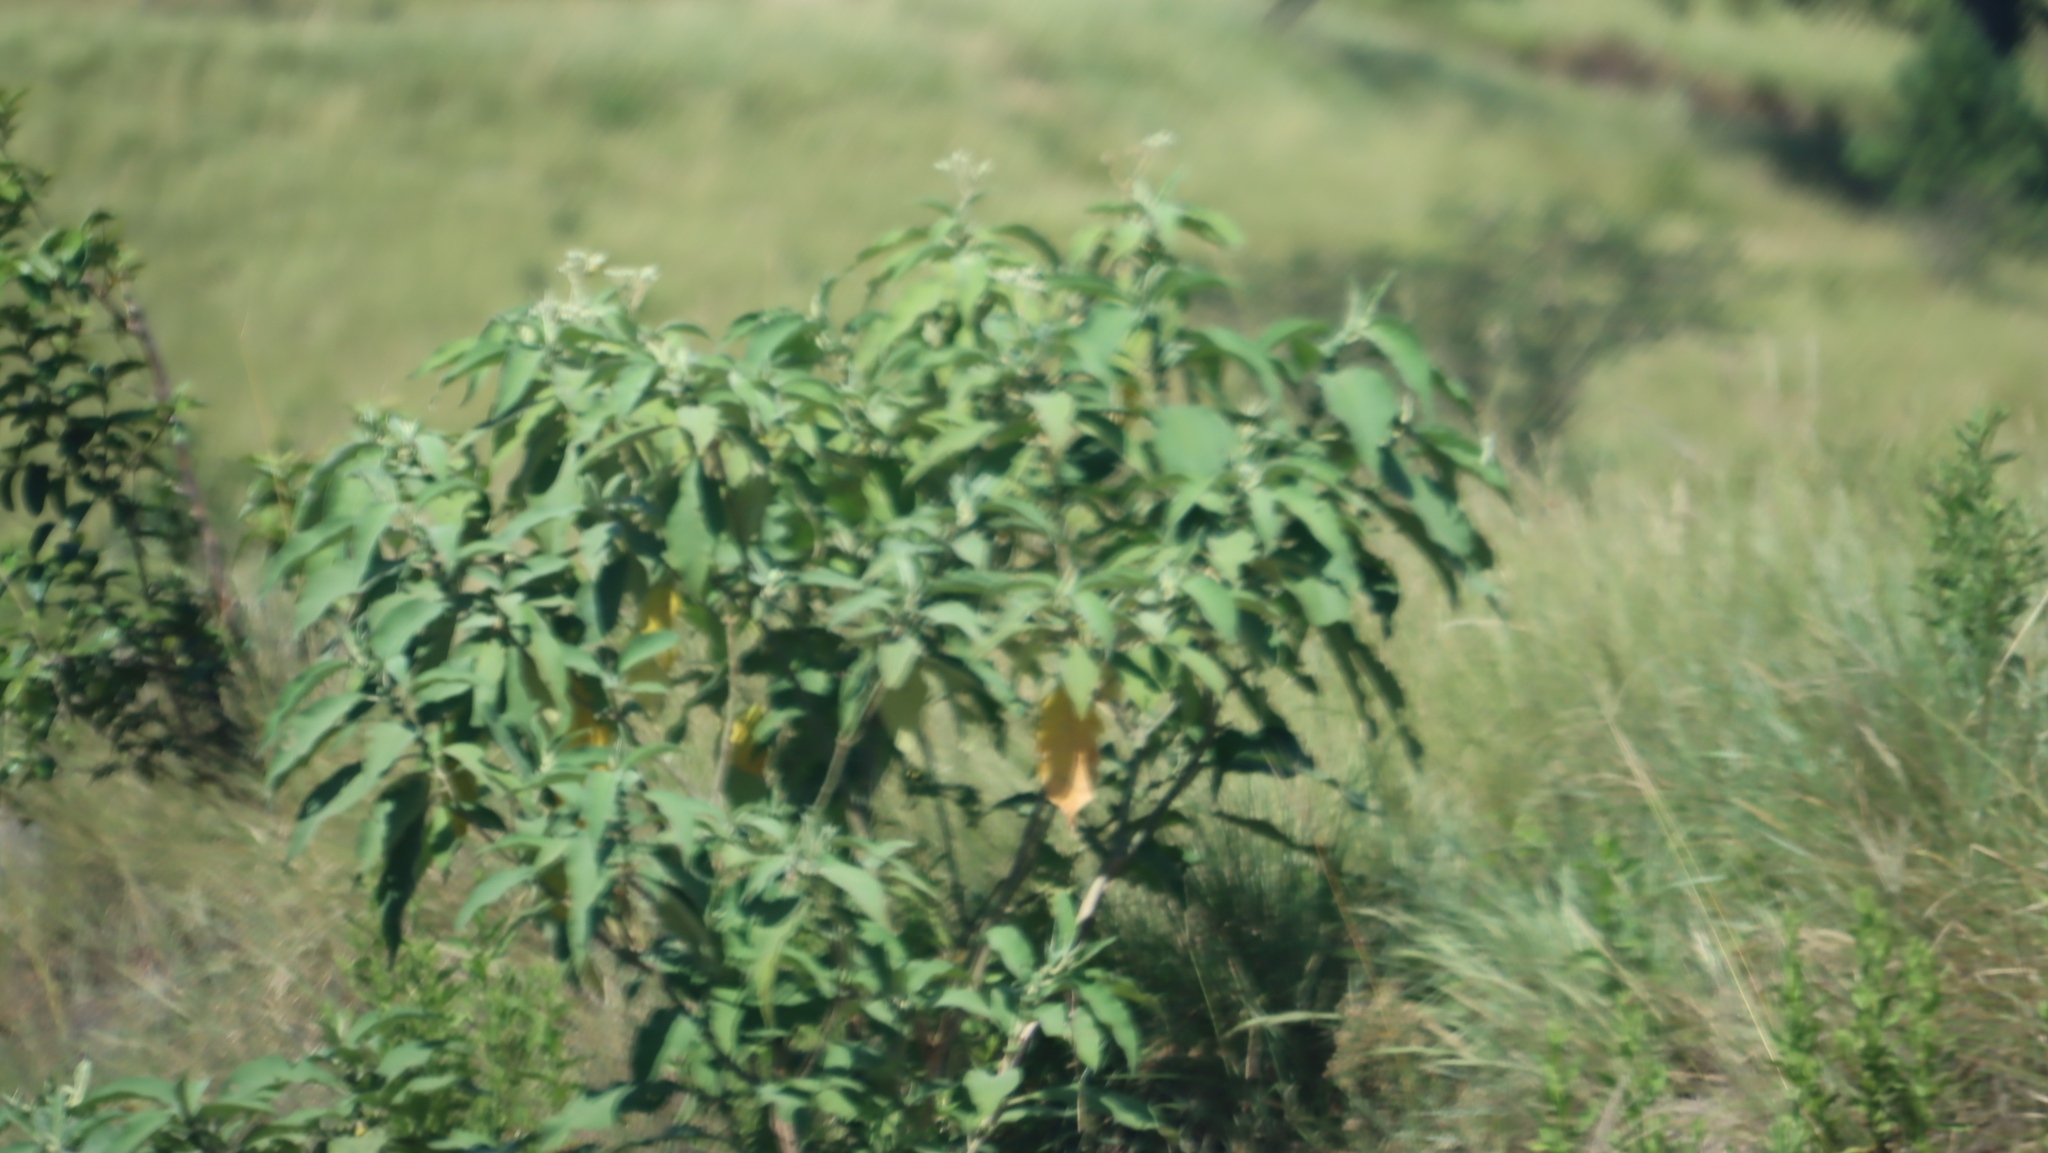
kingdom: Plantae
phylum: Tracheophyta
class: Magnoliopsida
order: Solanales
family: Solanaceae
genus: Solanum
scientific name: Solanum mauritianum
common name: Earleaf nightshade
